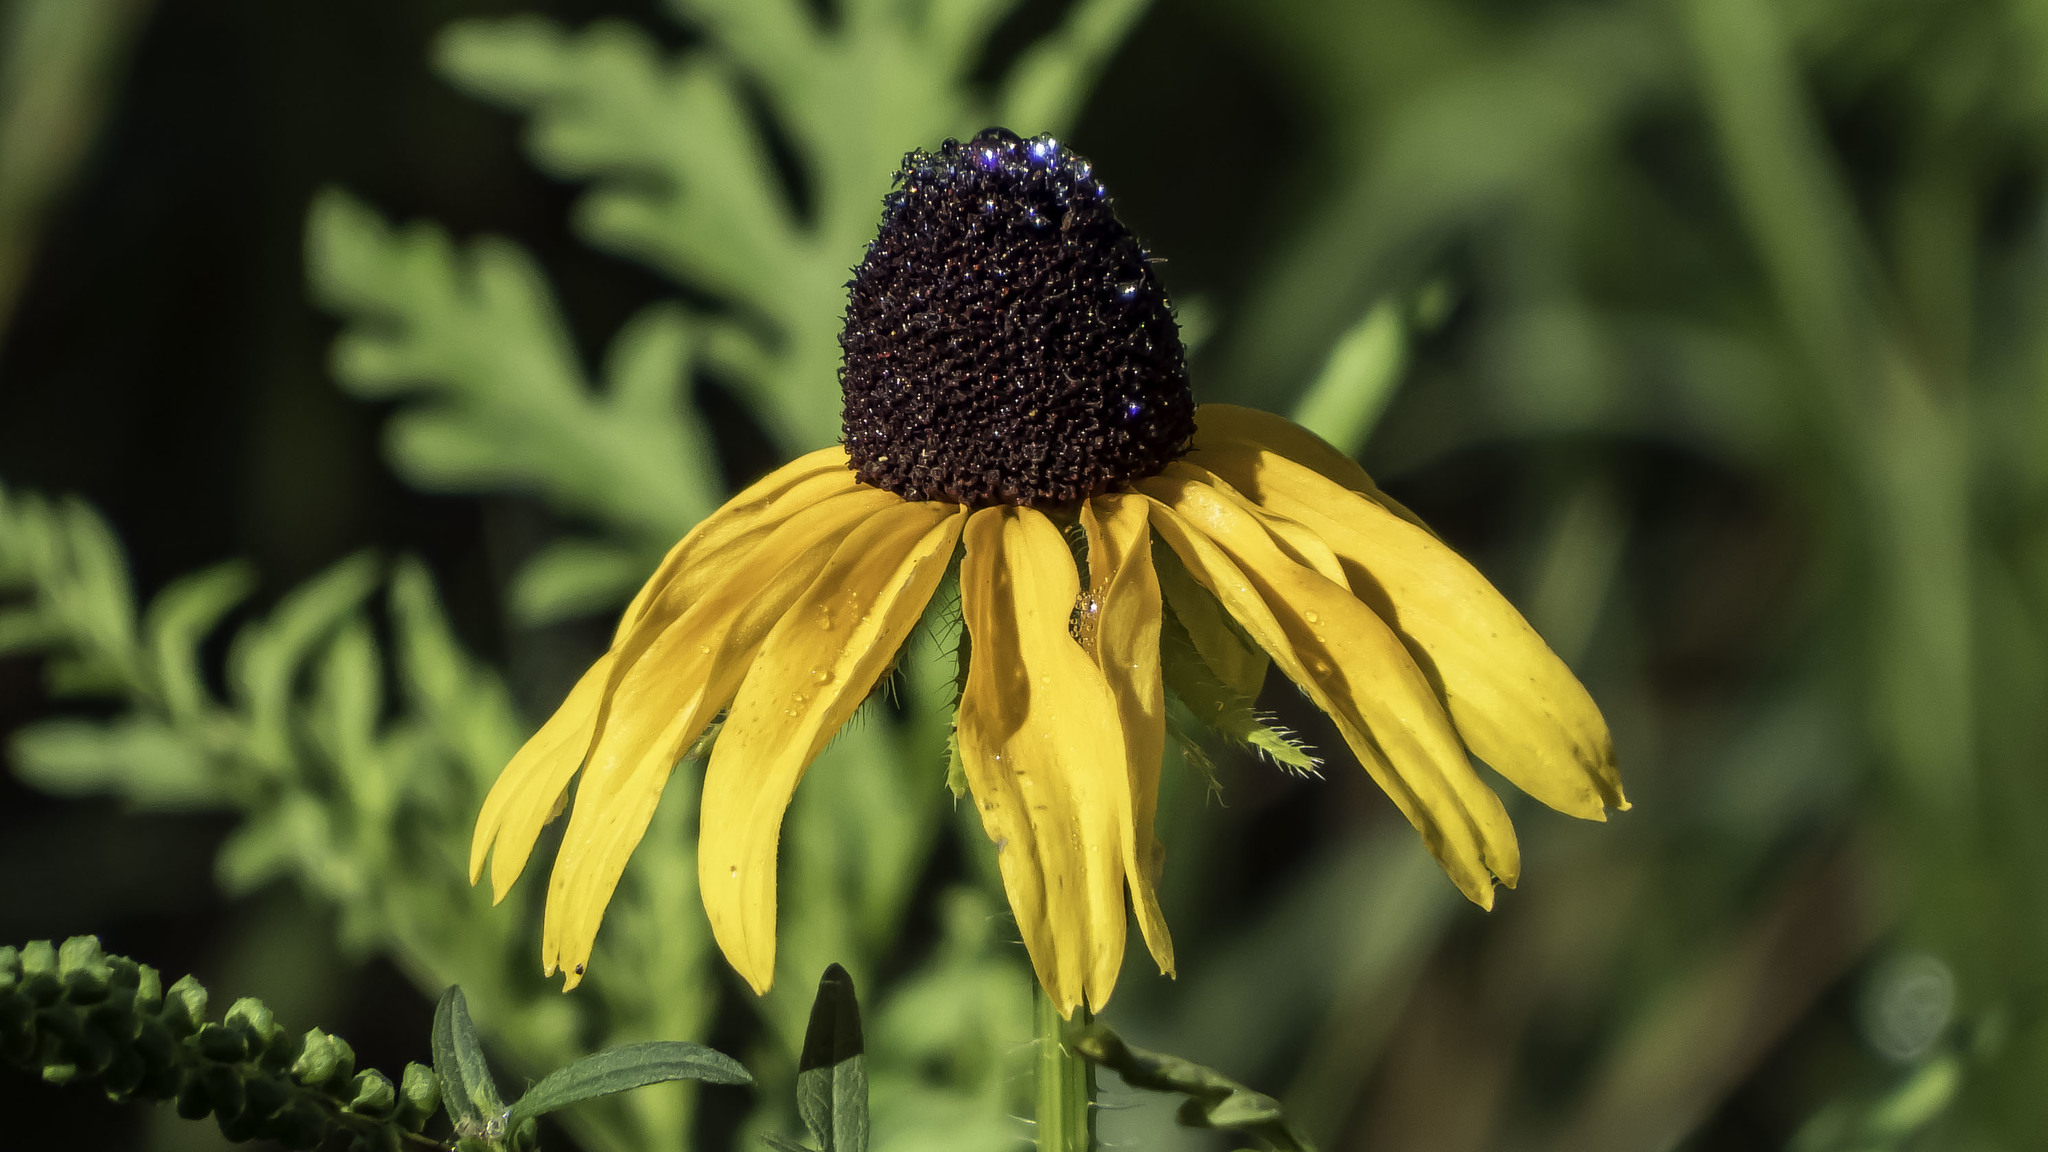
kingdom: Plantae
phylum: Tracheophyta
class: Magnoliopsida
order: Asterales
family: Asteraceae
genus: Rudbeckia
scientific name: Rudbeckia hirta
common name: Black-eyed-susan
